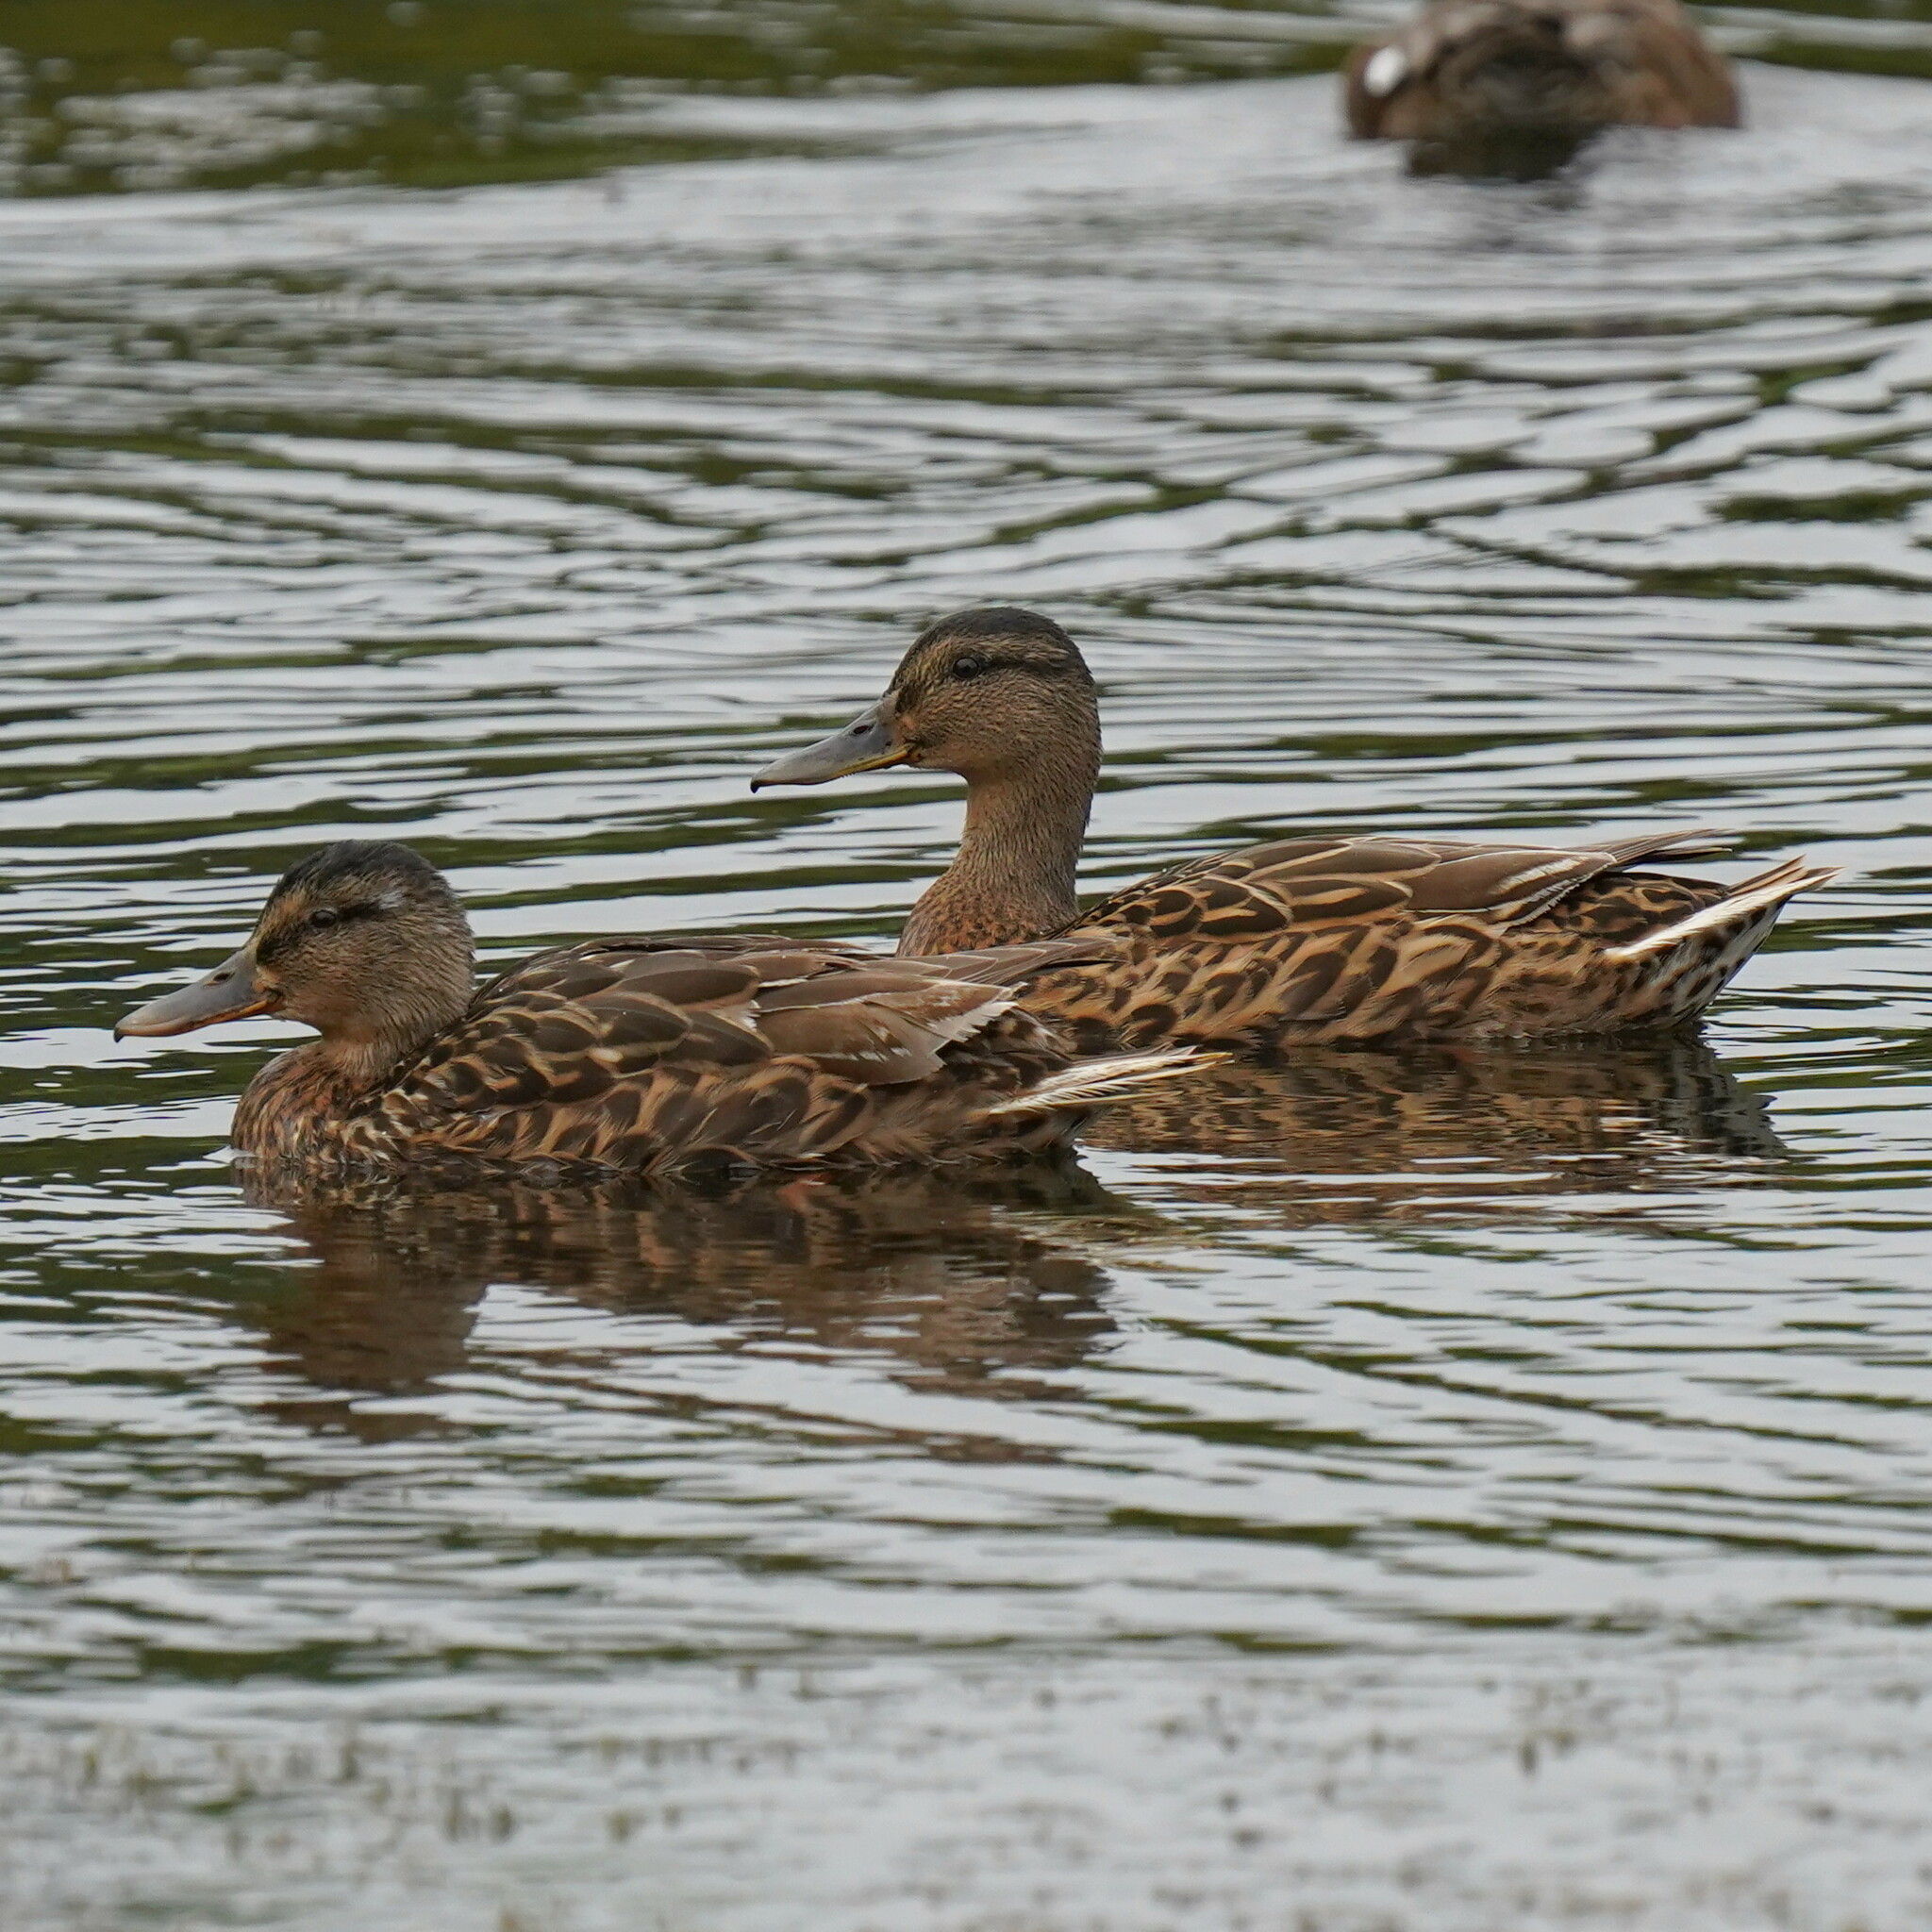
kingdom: Animalia
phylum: Chordata
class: Aves
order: Anseriformes
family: Anatidae
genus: Anas
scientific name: Anas platyrhynchos
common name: Mallard
